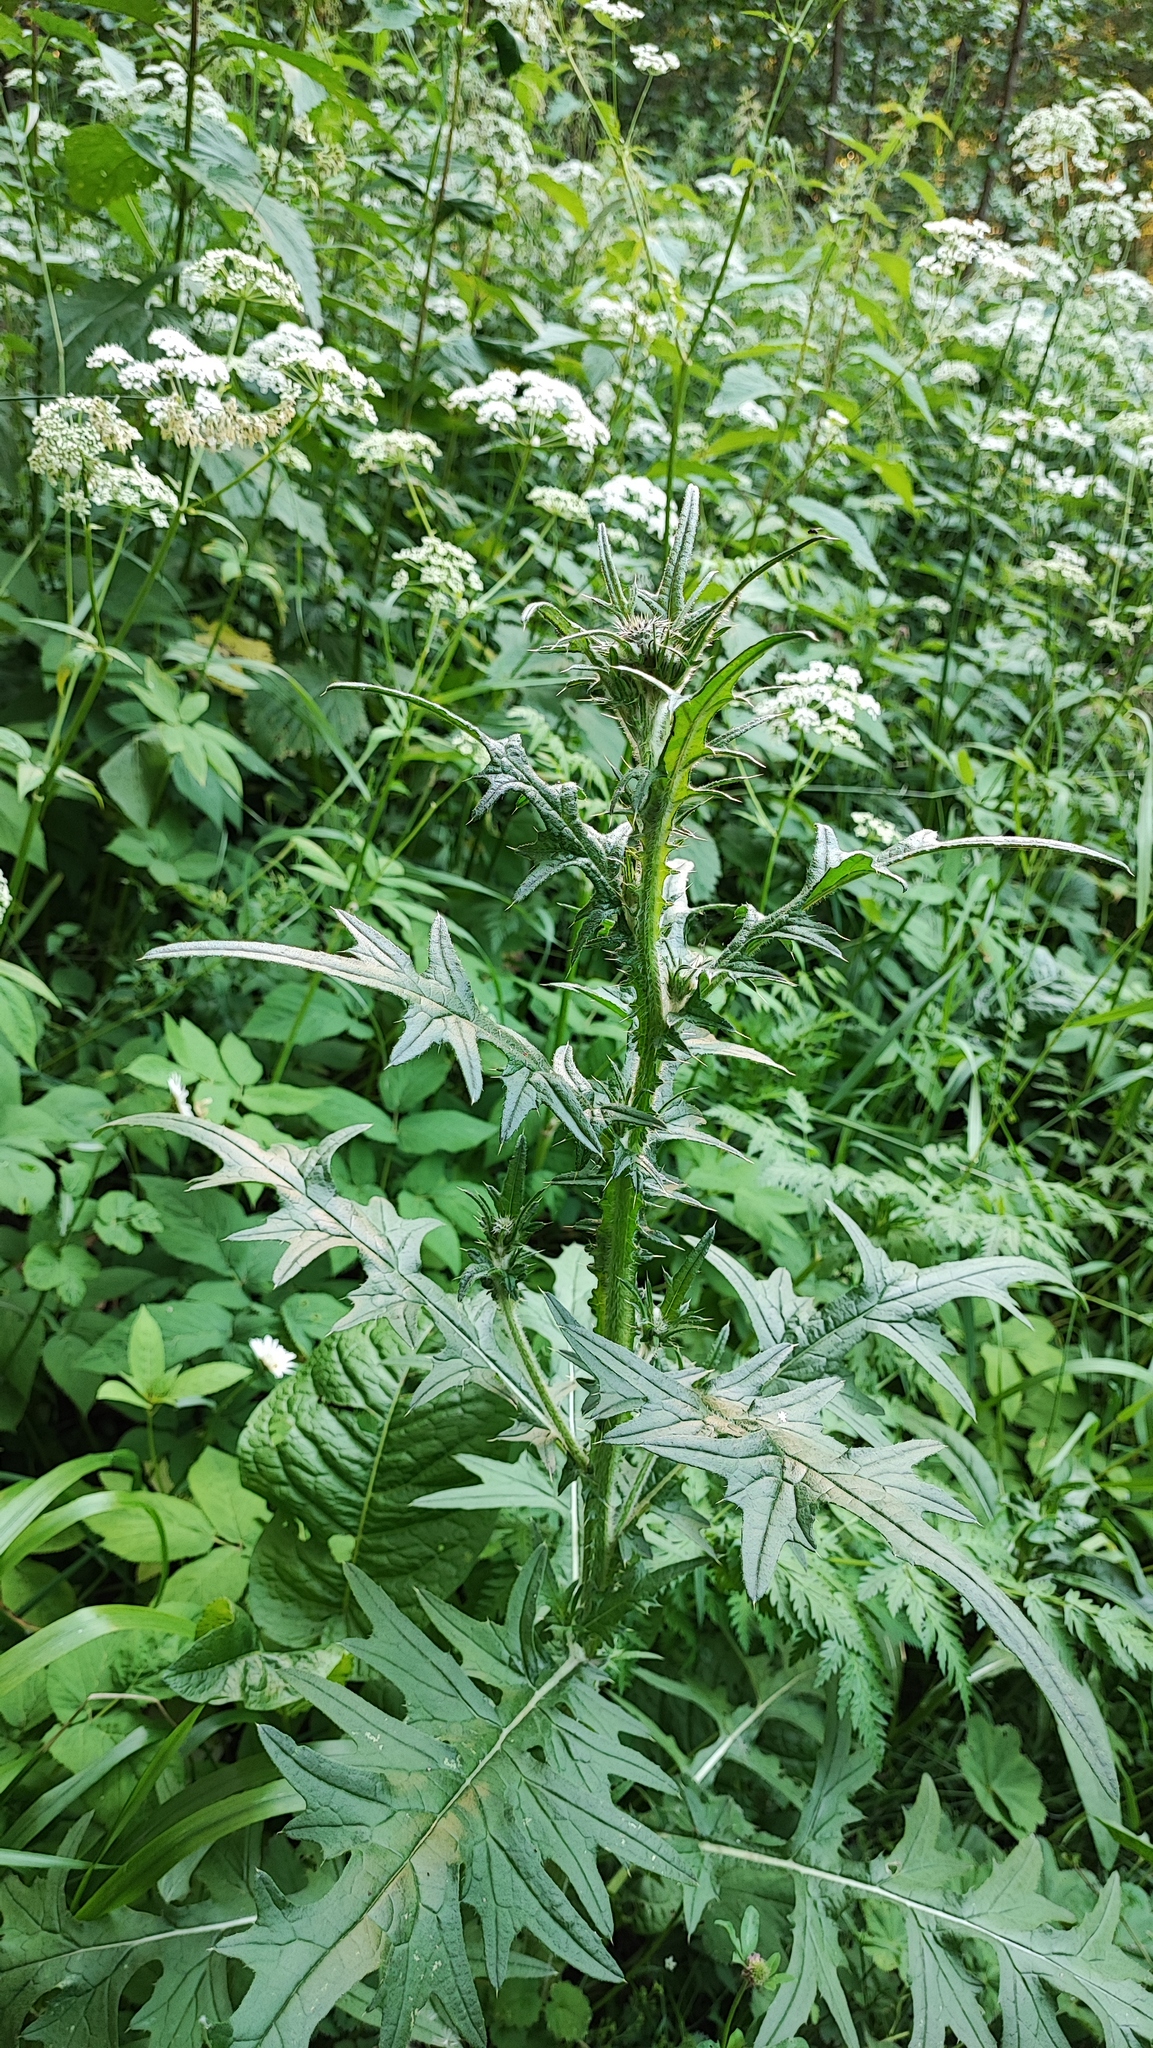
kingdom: Plantae
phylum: Tracheophyta
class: Magnoliopsida
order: Asterales
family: Asteraceae
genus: Cirsium
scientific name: Cirsium vulgare
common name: Bull thistle
